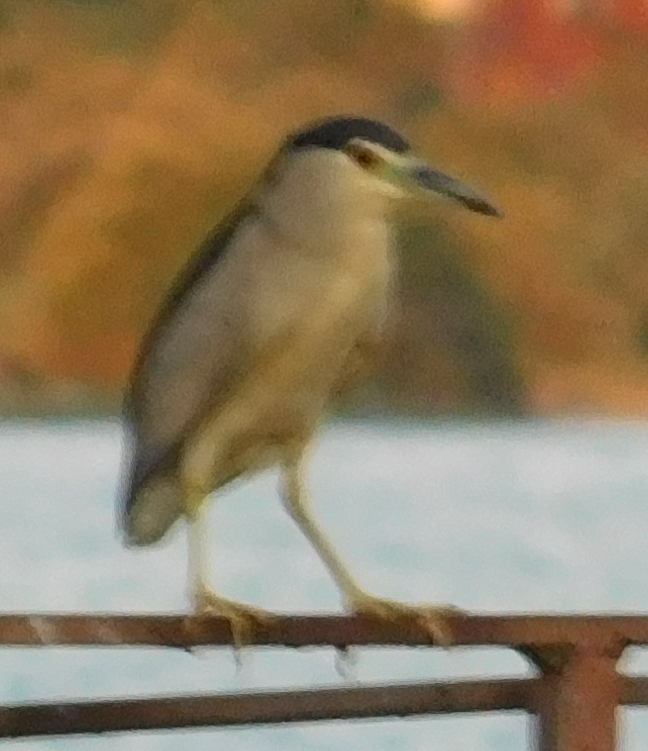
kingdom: Animalia
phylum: Chordata
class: Aves
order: Pelecaniformes
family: Ardeidae
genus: Nycticorax
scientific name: Nycticorax nycticorax
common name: Black-crowned night heron
